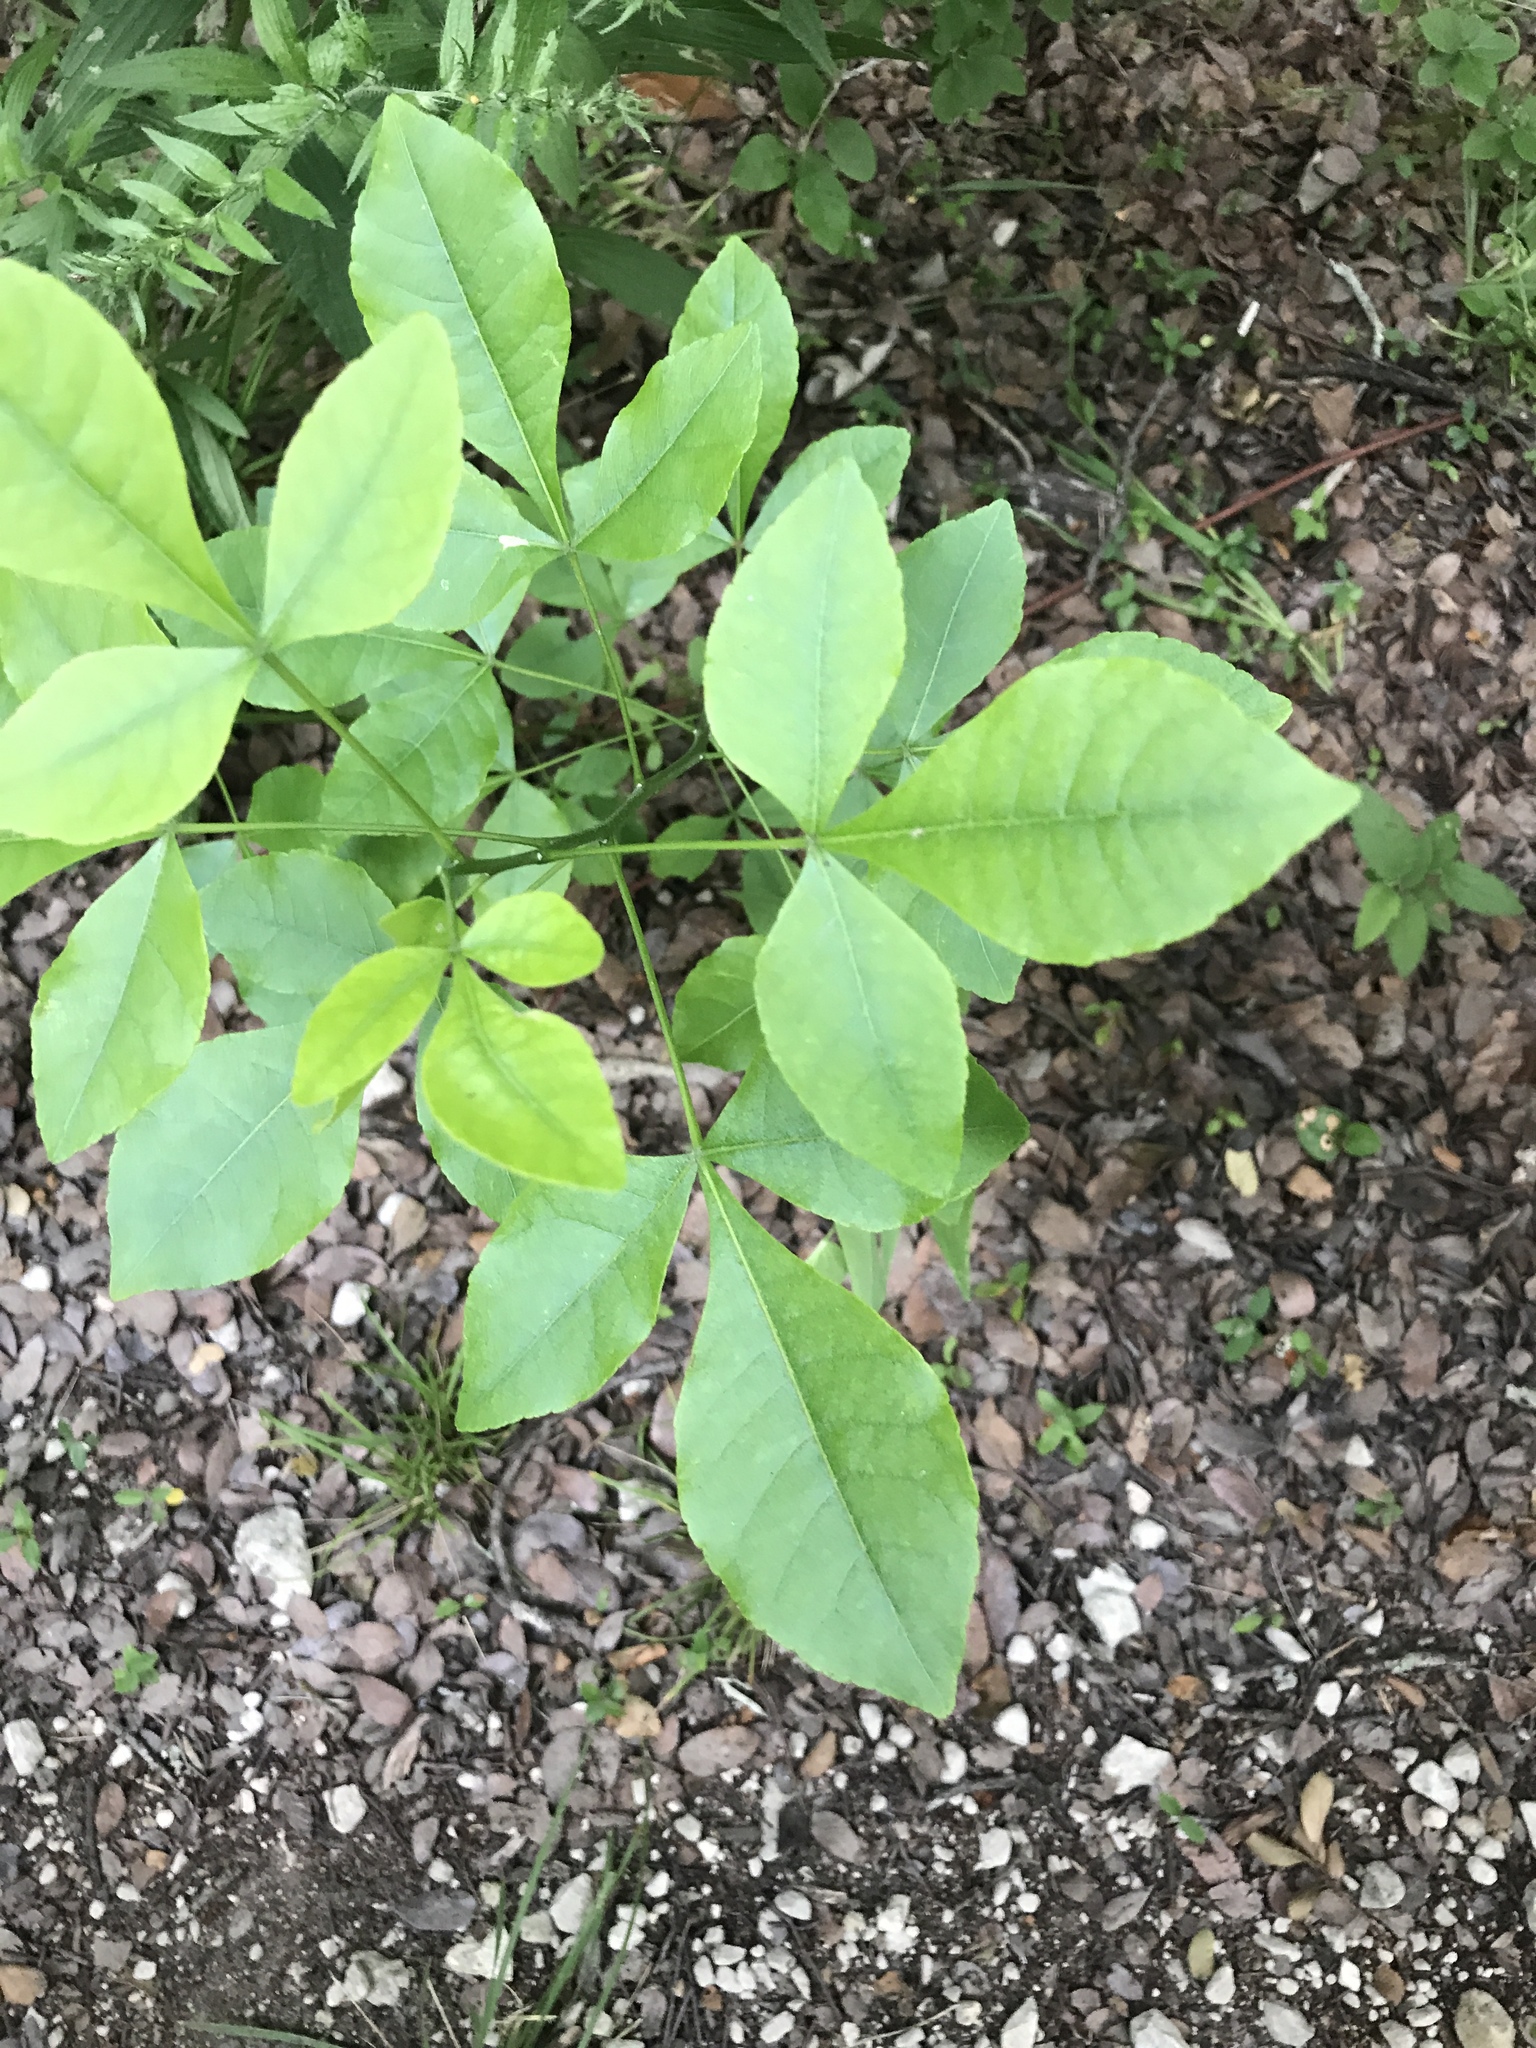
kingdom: Plantae
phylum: Tracheophyta
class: Magnoliopsida
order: Sapindales
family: Rutaceae
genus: Ptelea
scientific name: Ptelea trifoliata
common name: Common hop-tree
